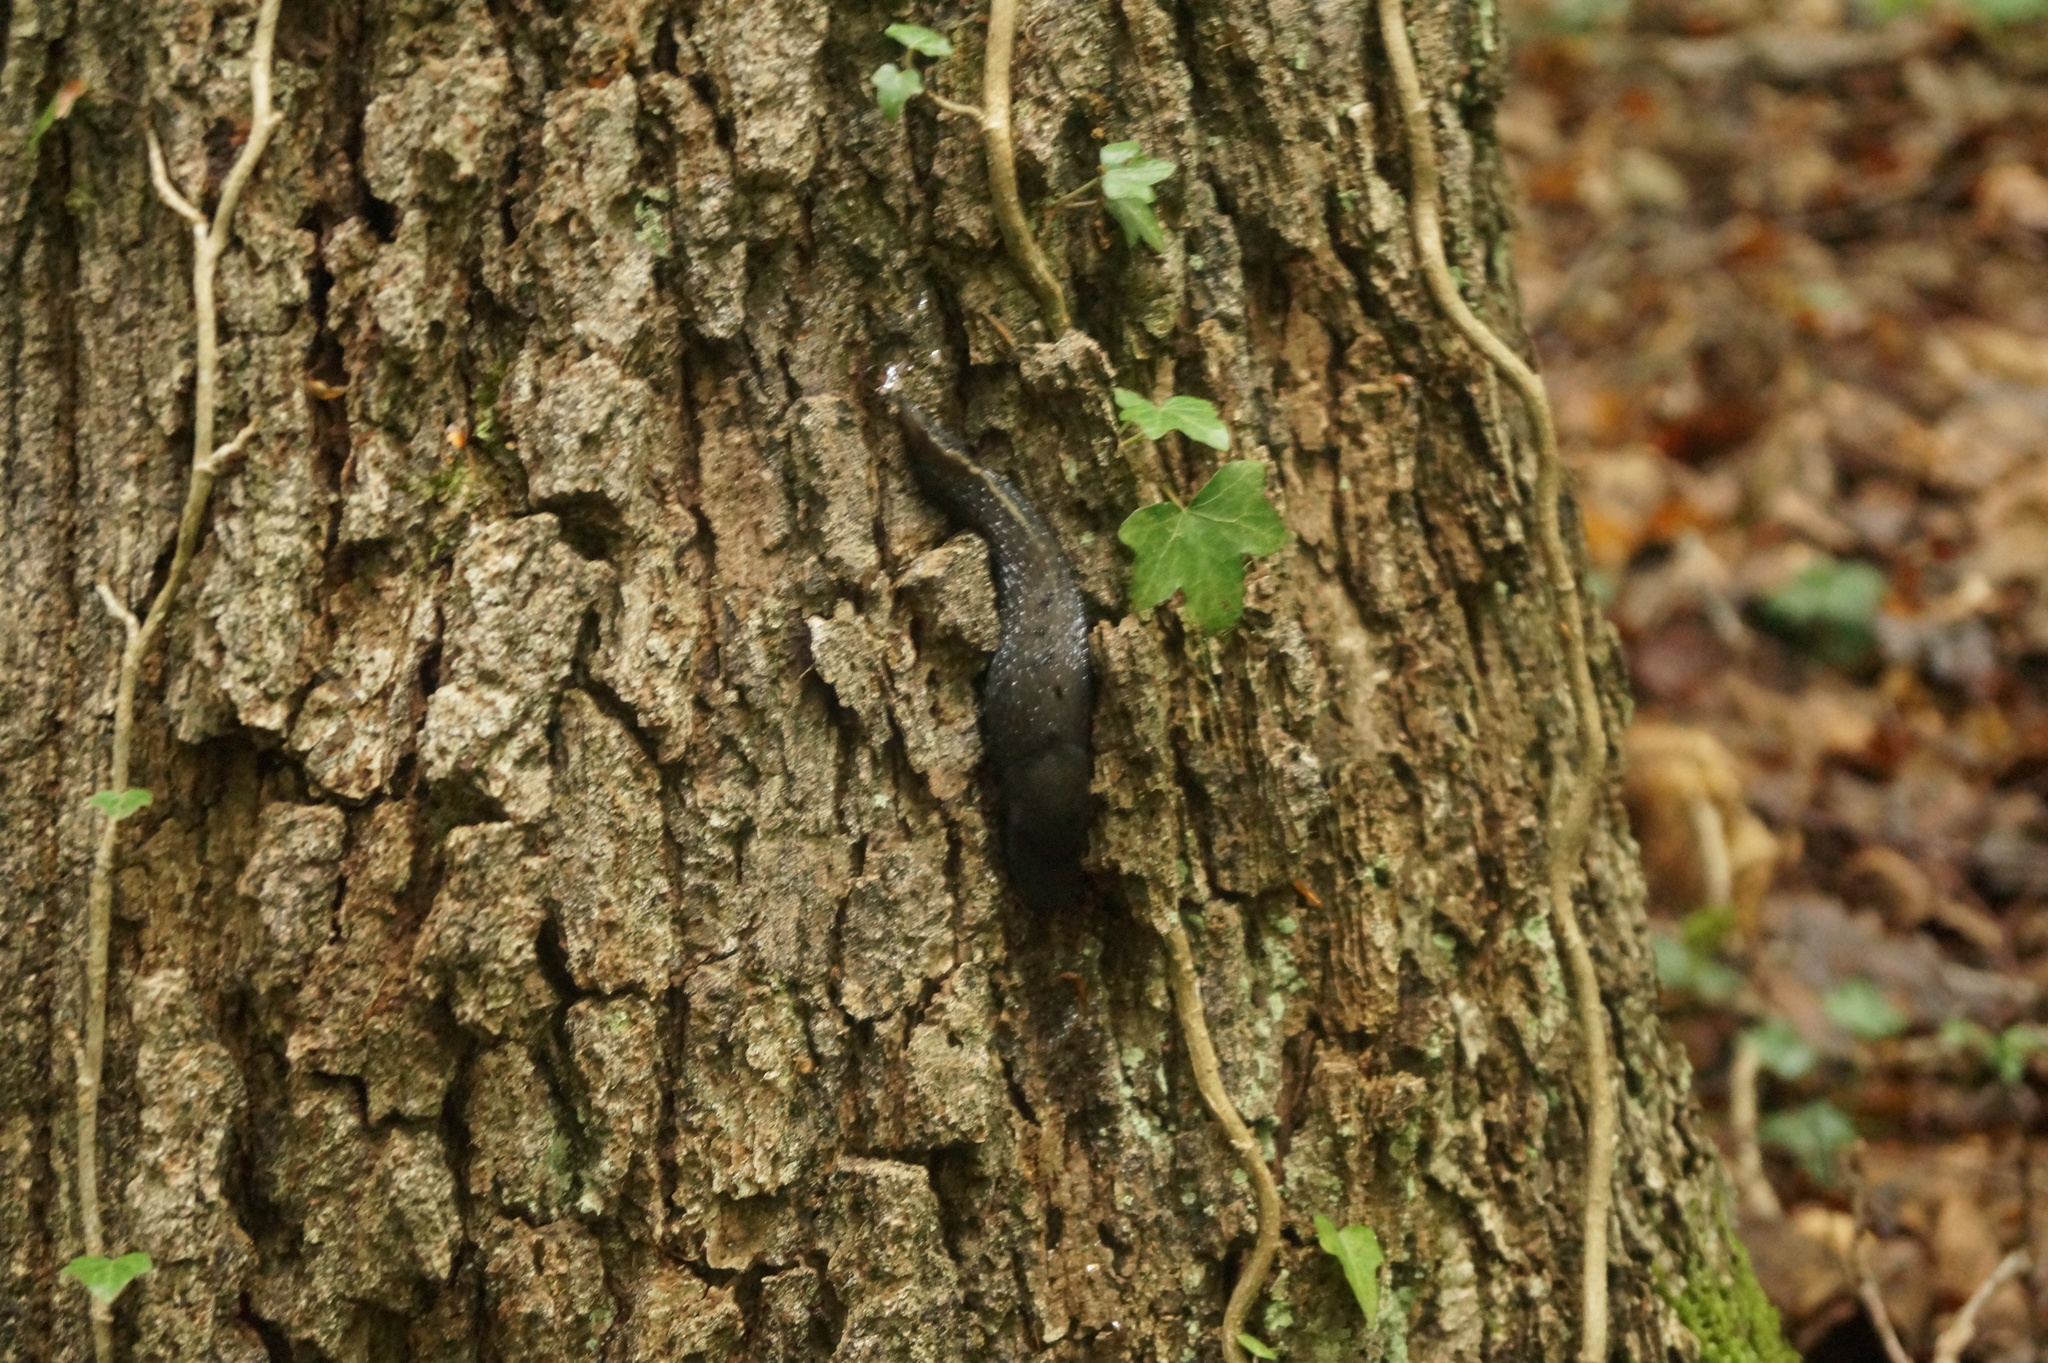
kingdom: Animalia
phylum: Mollusca
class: Gastropoda
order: Stylommatophora
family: Limacidae
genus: Limax
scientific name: Limax cinereoniger
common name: Ash-black slug
